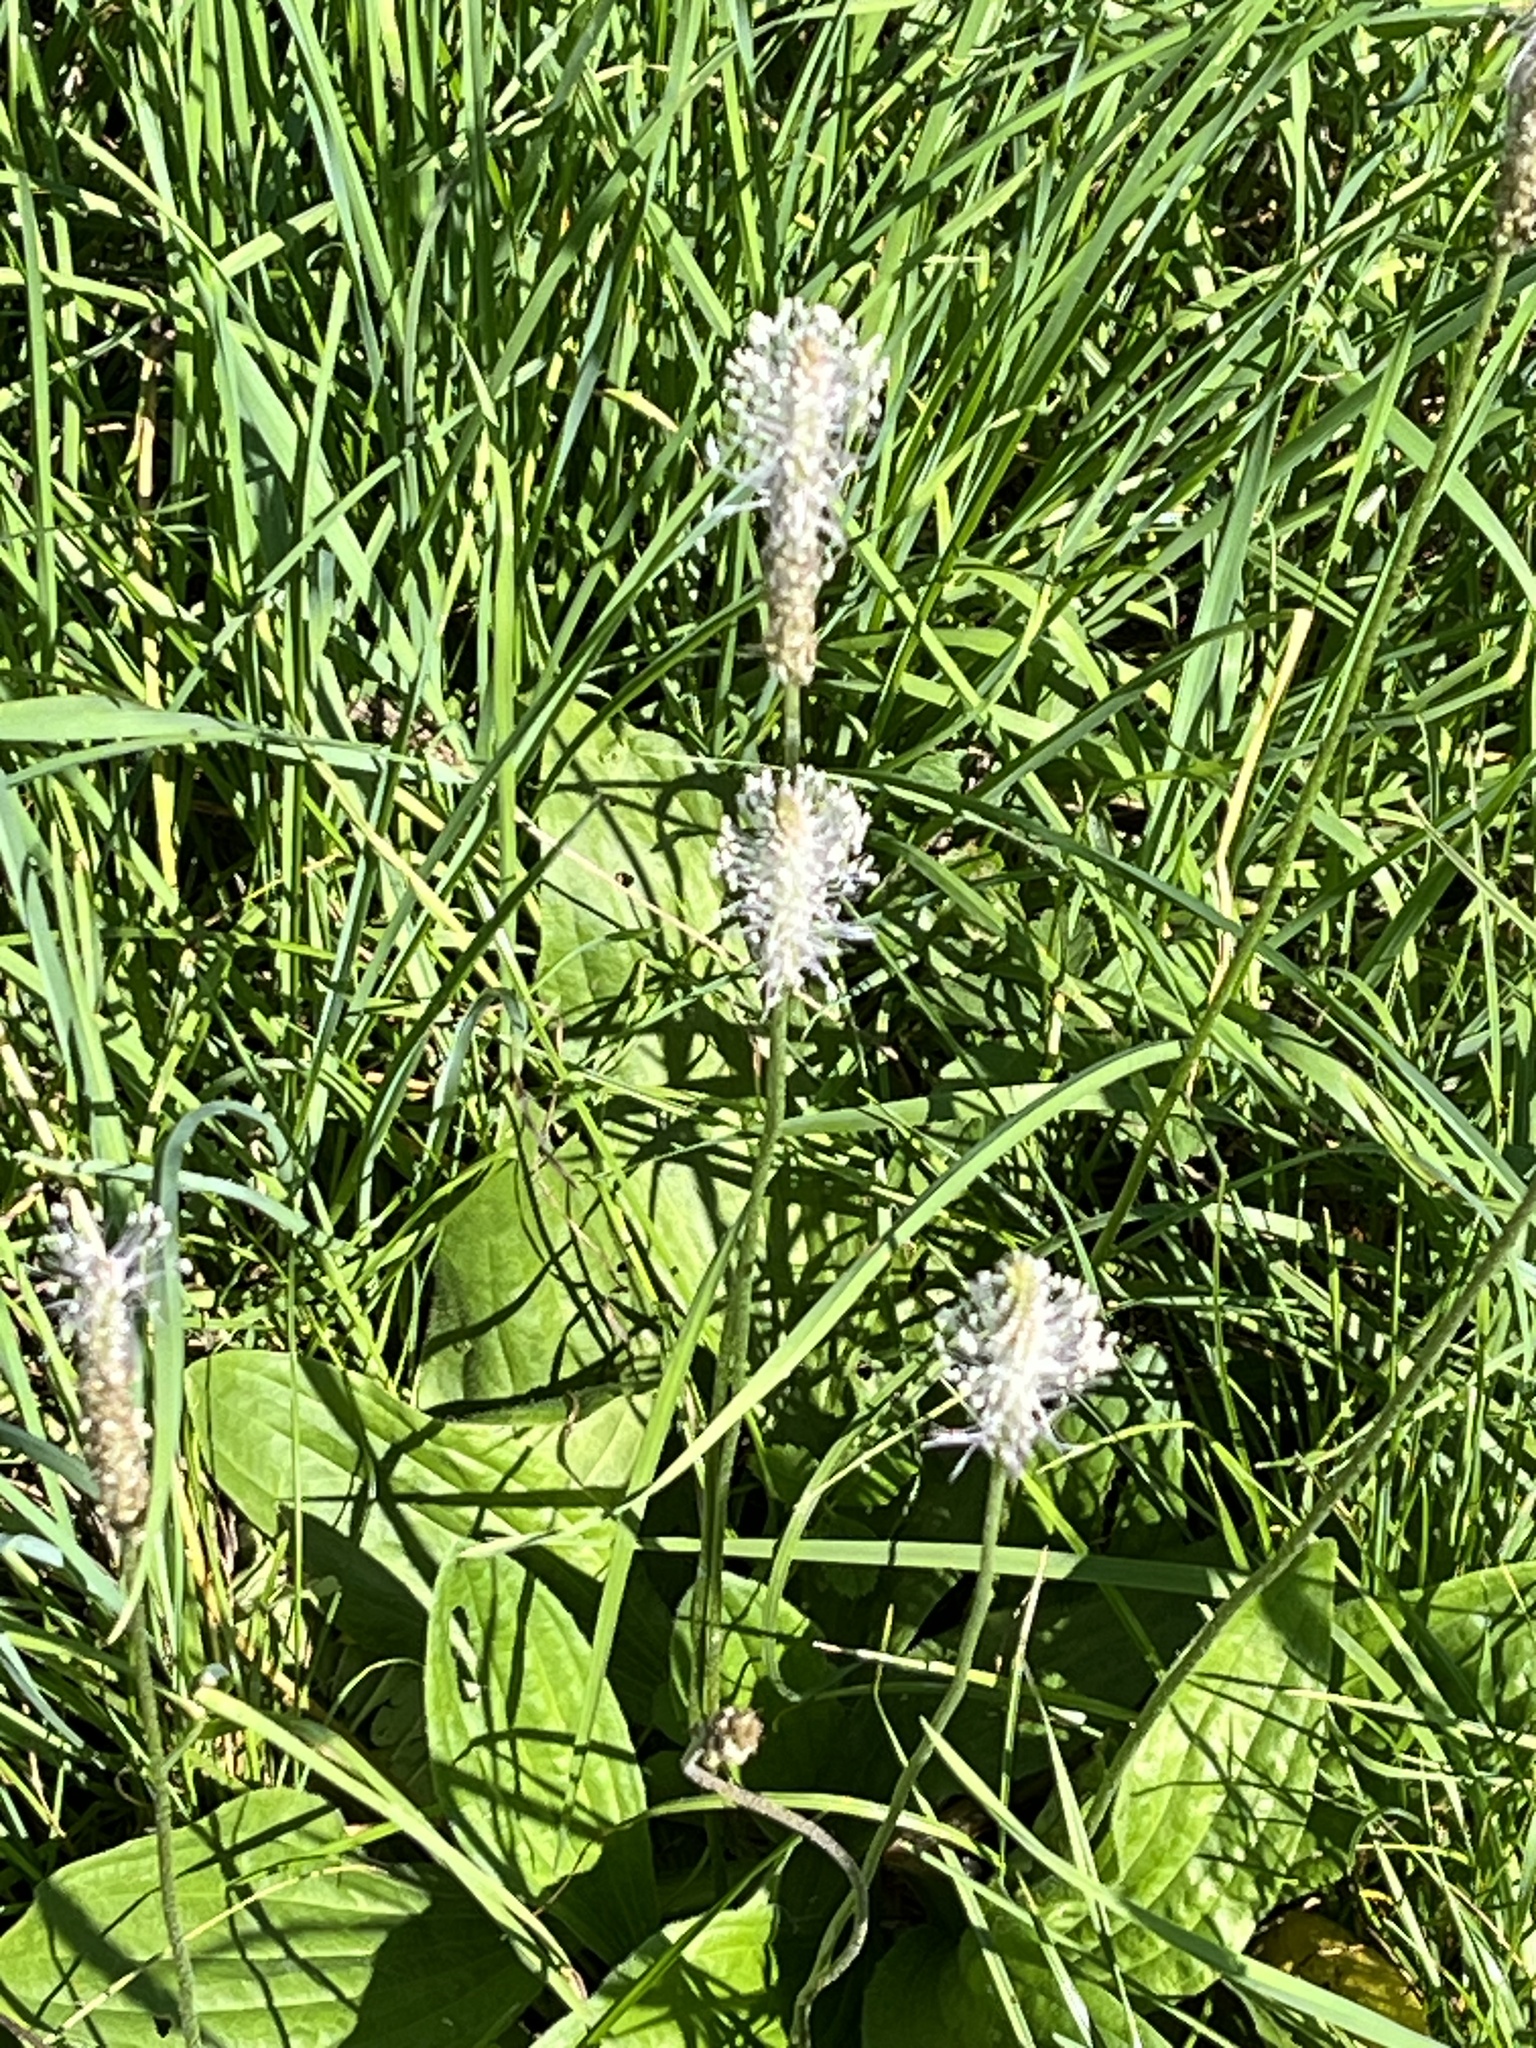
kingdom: Plantae
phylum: Tracheophyta
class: Magnoliopsida
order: Lamiales
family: Plantaginaceae
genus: Plantago
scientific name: Plantago lanceolata
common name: Ribwort plantain
